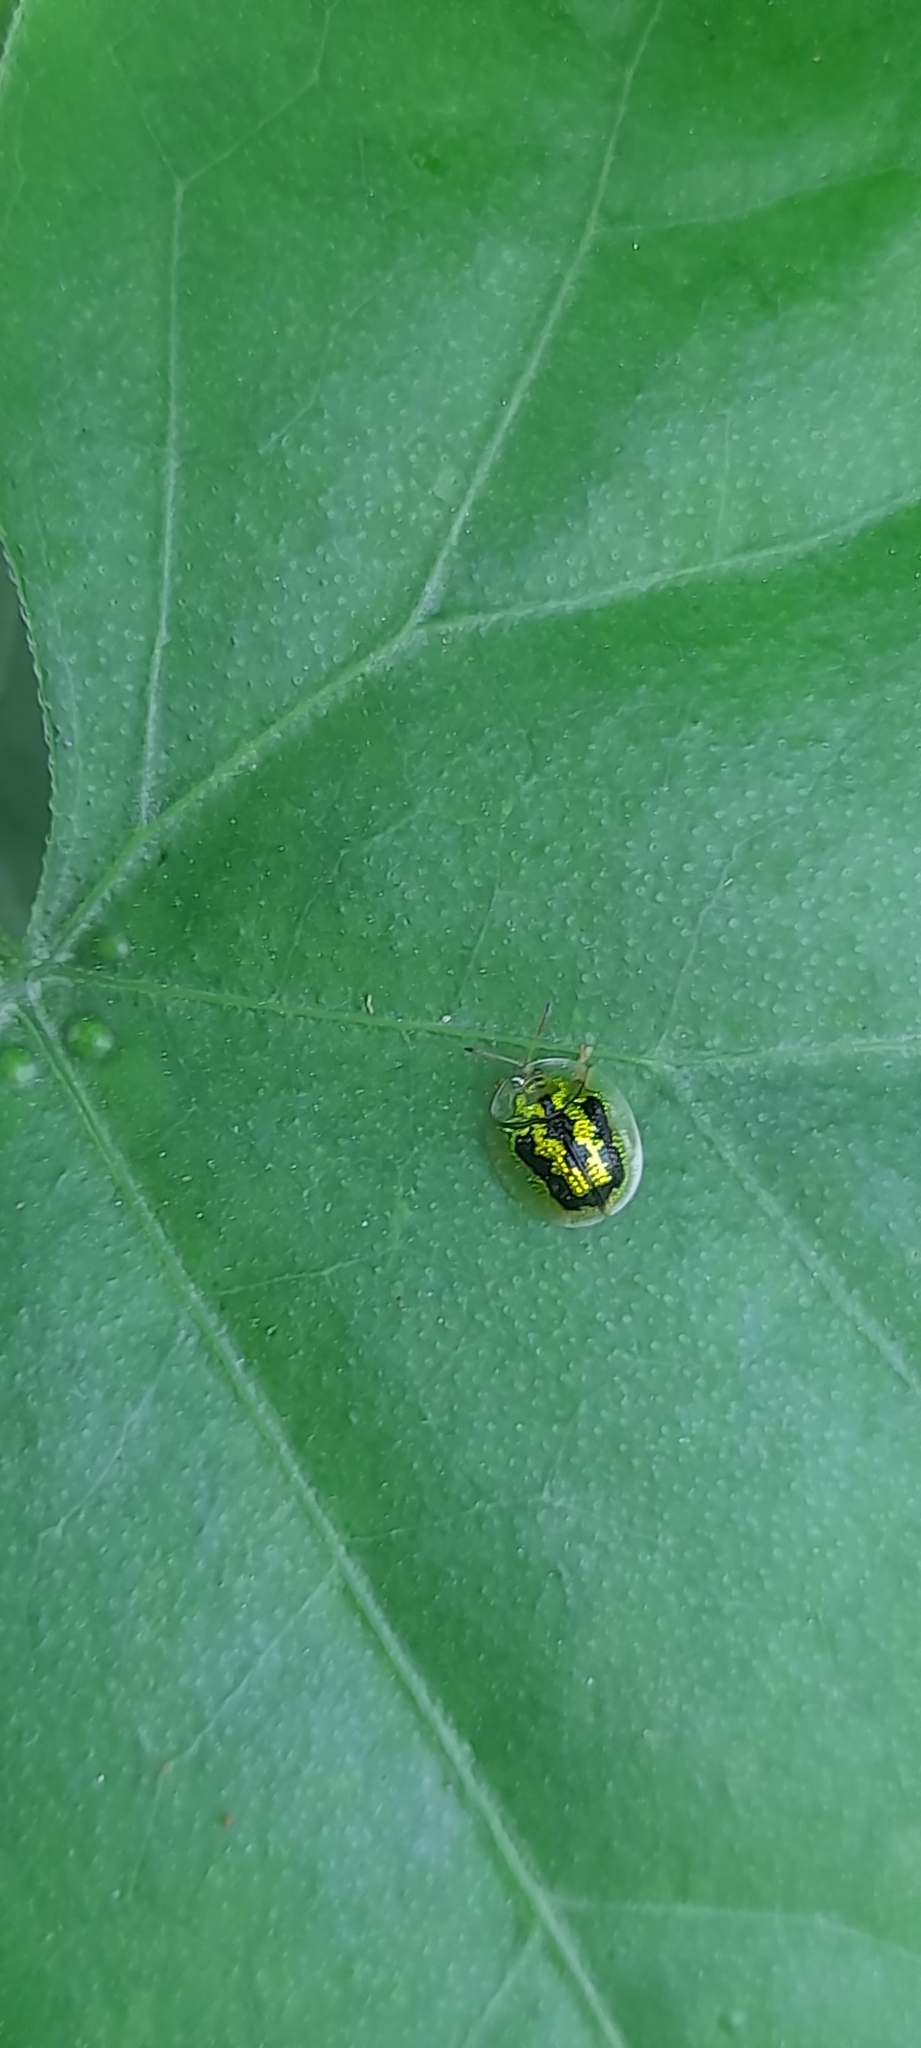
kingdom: Animalia
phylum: Arthropoda
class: Insecta
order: Coleoptera
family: Chrysomelidae
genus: Cassida
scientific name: Cassida circumdata
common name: Tortoise beetle
